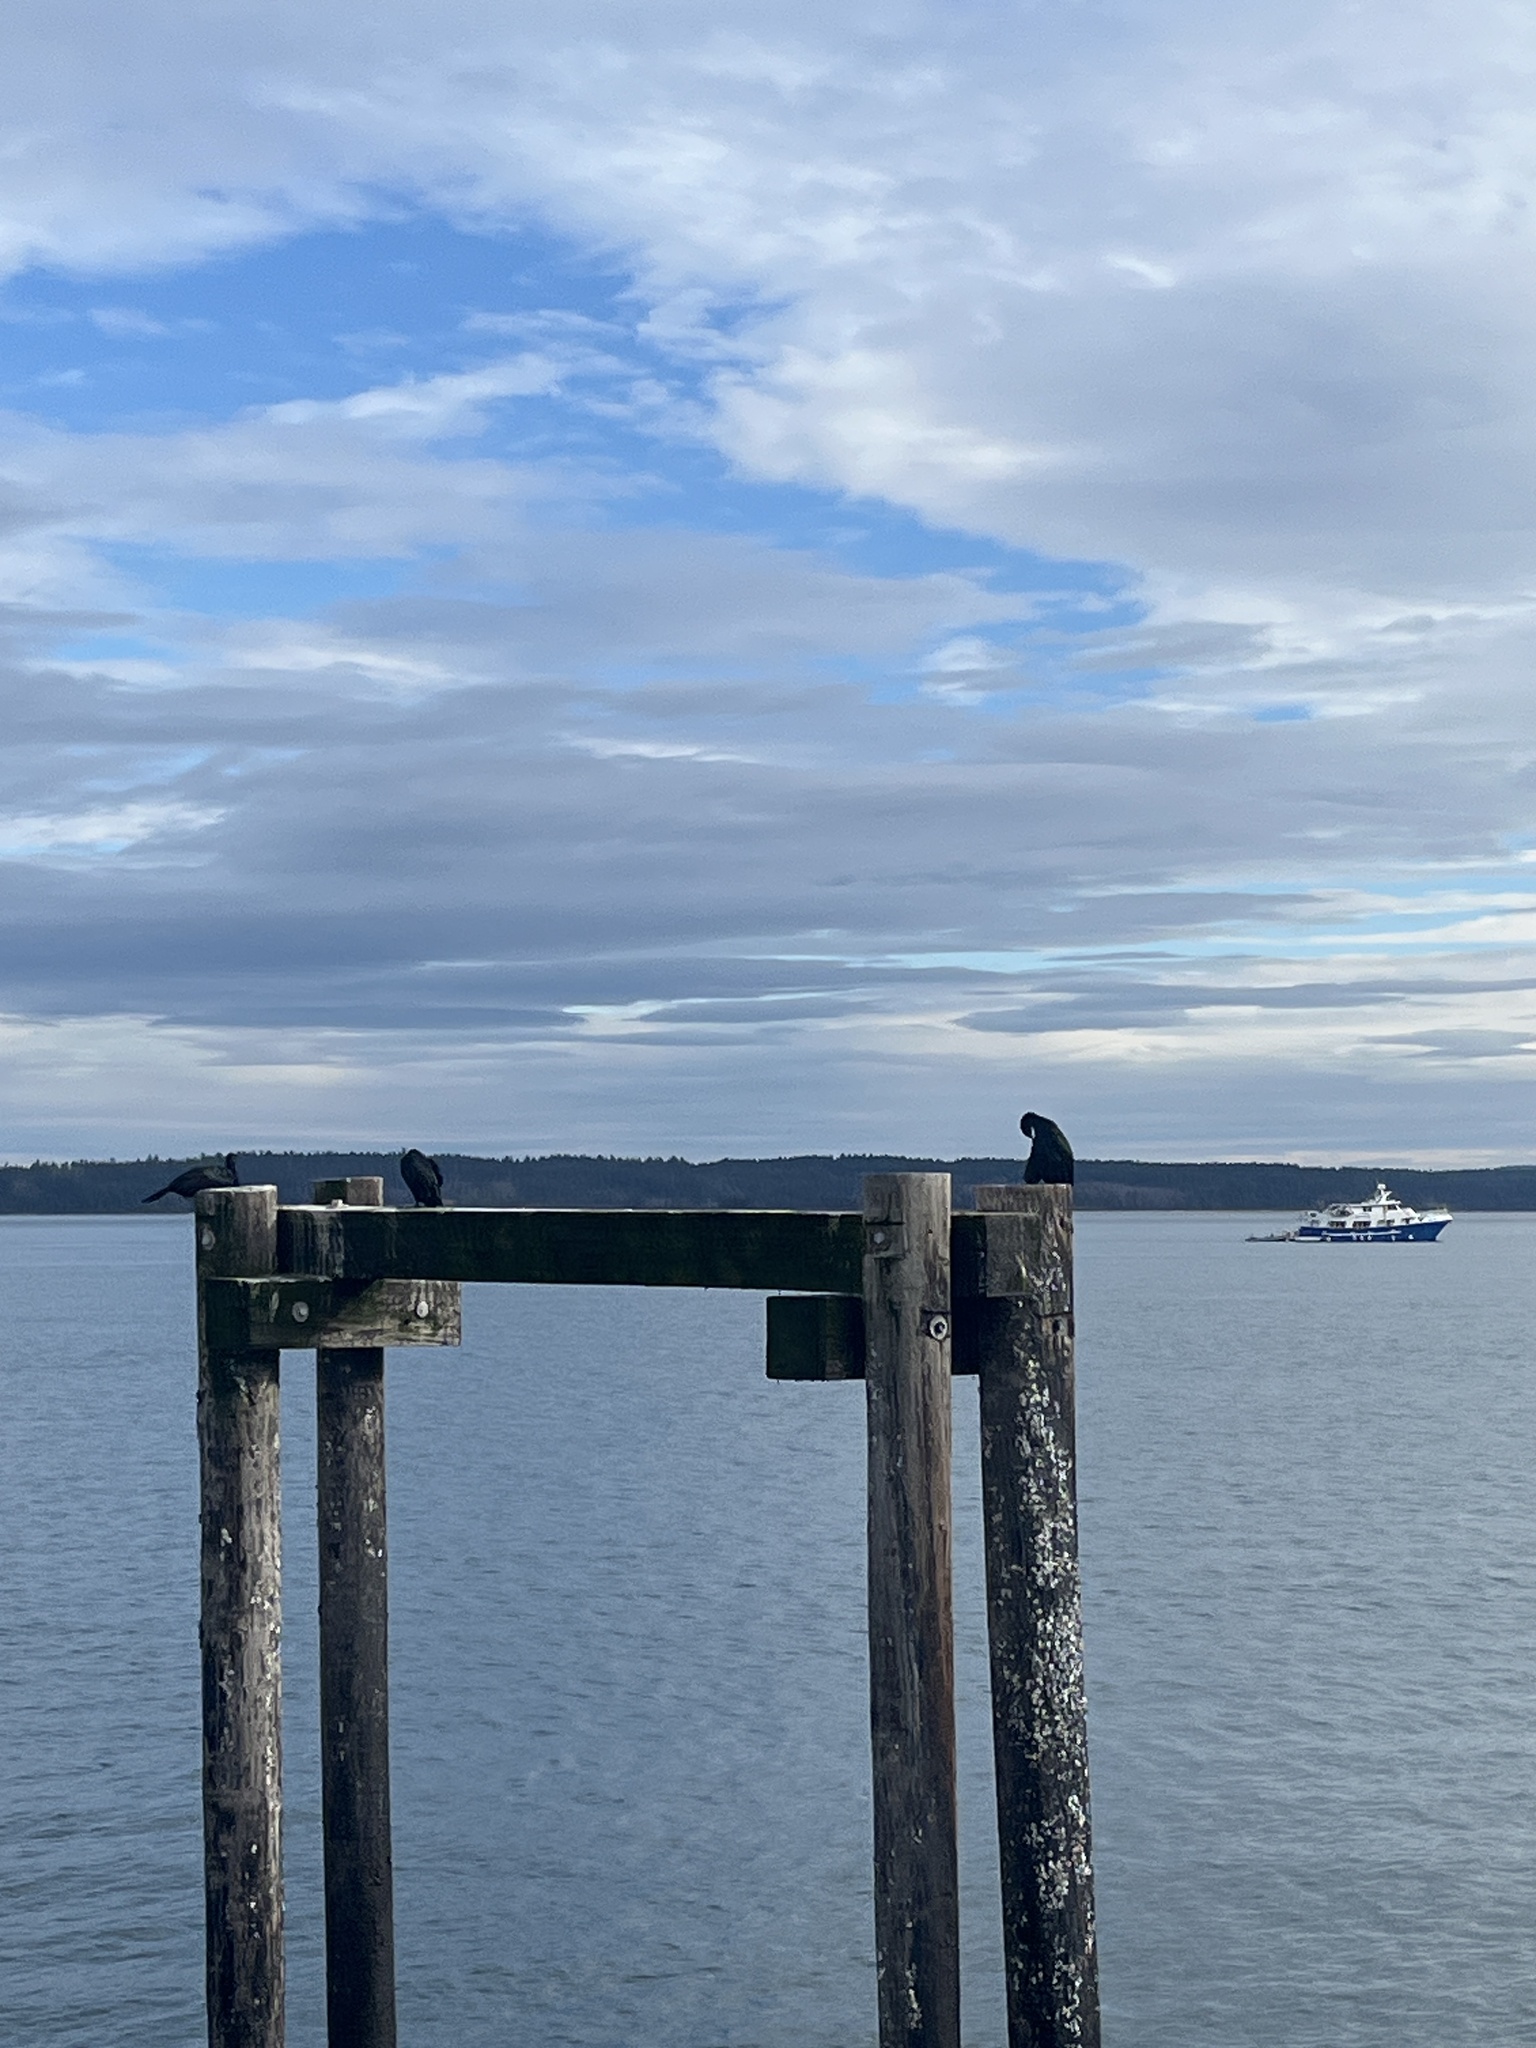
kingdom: Animalia
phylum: Chordata
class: Aves
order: Suliformes
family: Phalacrocoracidae
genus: Phalacrocorax
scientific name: Phalacrocorax pelagicus
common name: Pelagic cormorant
